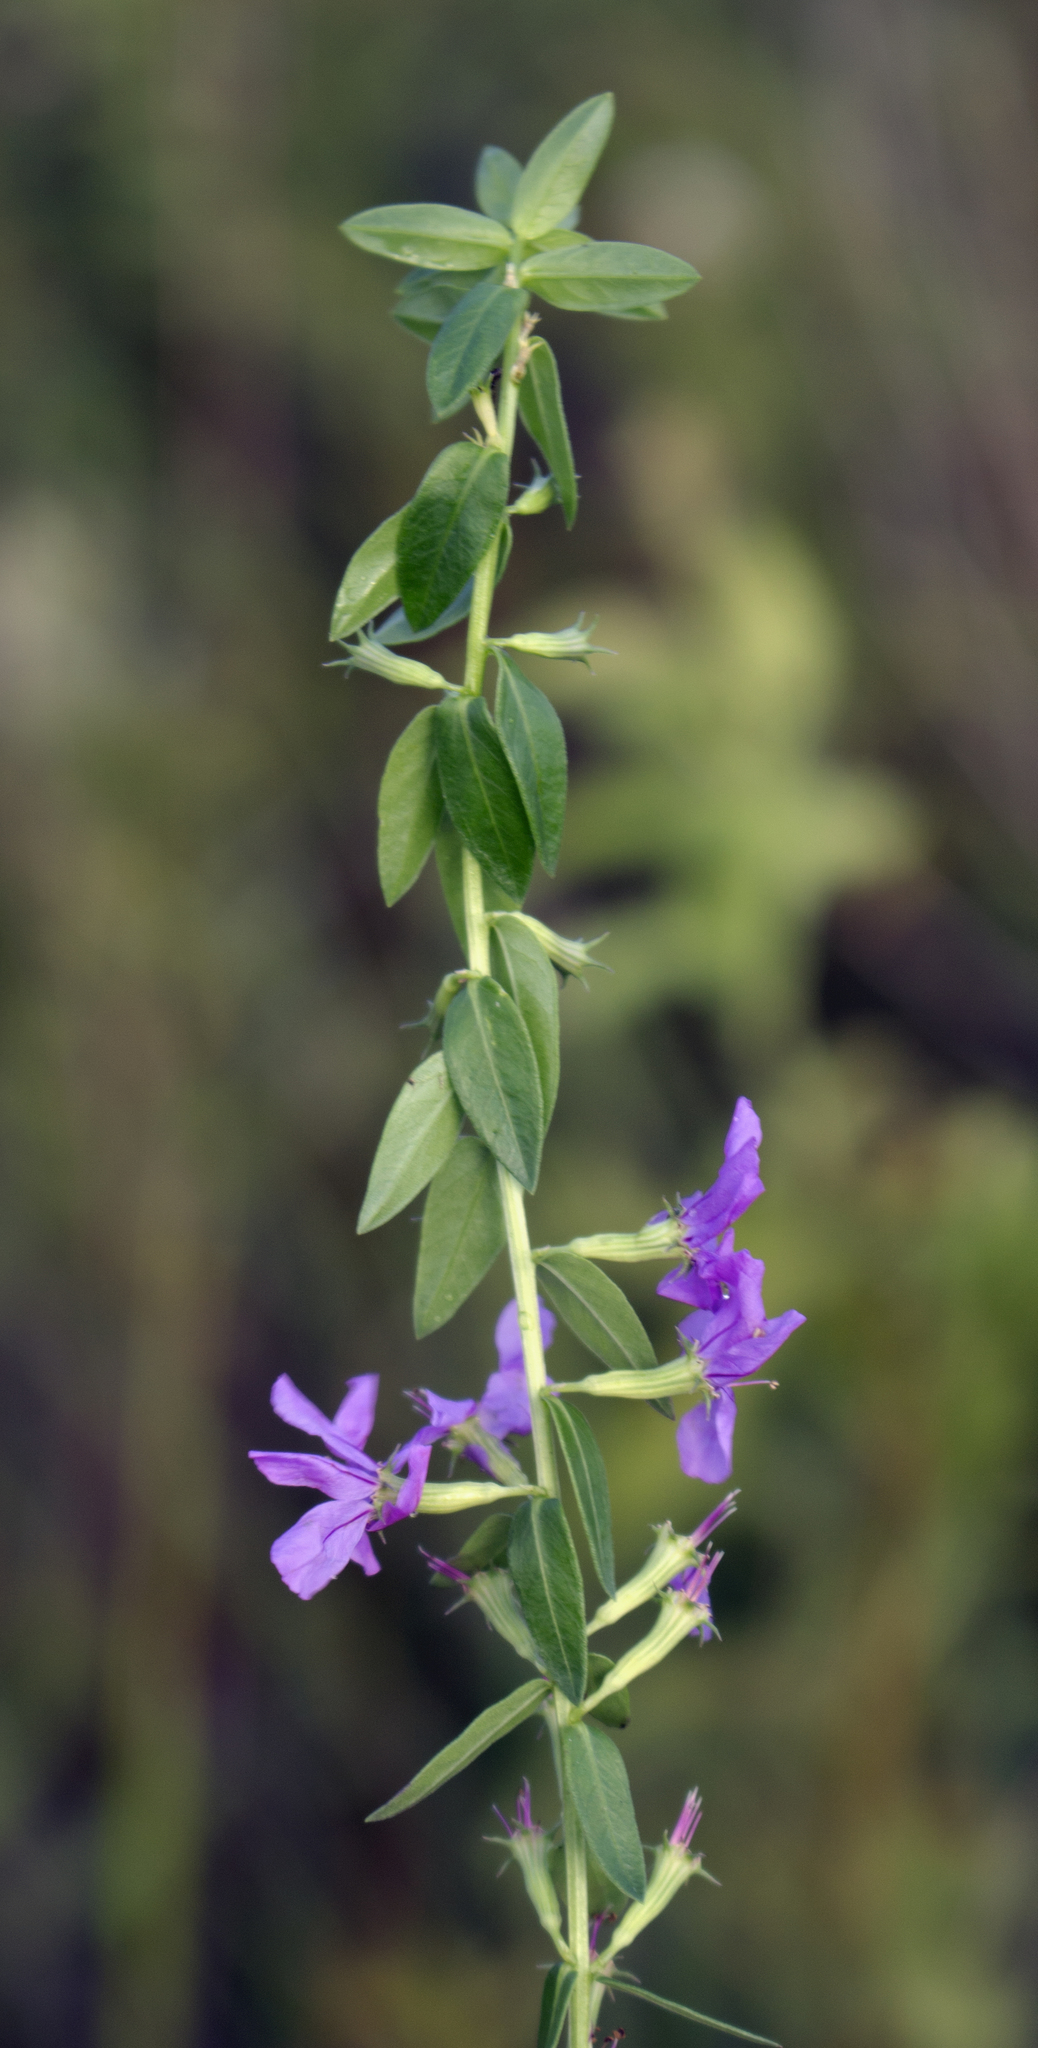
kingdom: Plantae
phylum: Tracheophyta
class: Magnoliopsida
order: Myrtales
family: Lythraceae
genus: Lythrum
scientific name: Lythrum alatum
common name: Winged loosestrife
